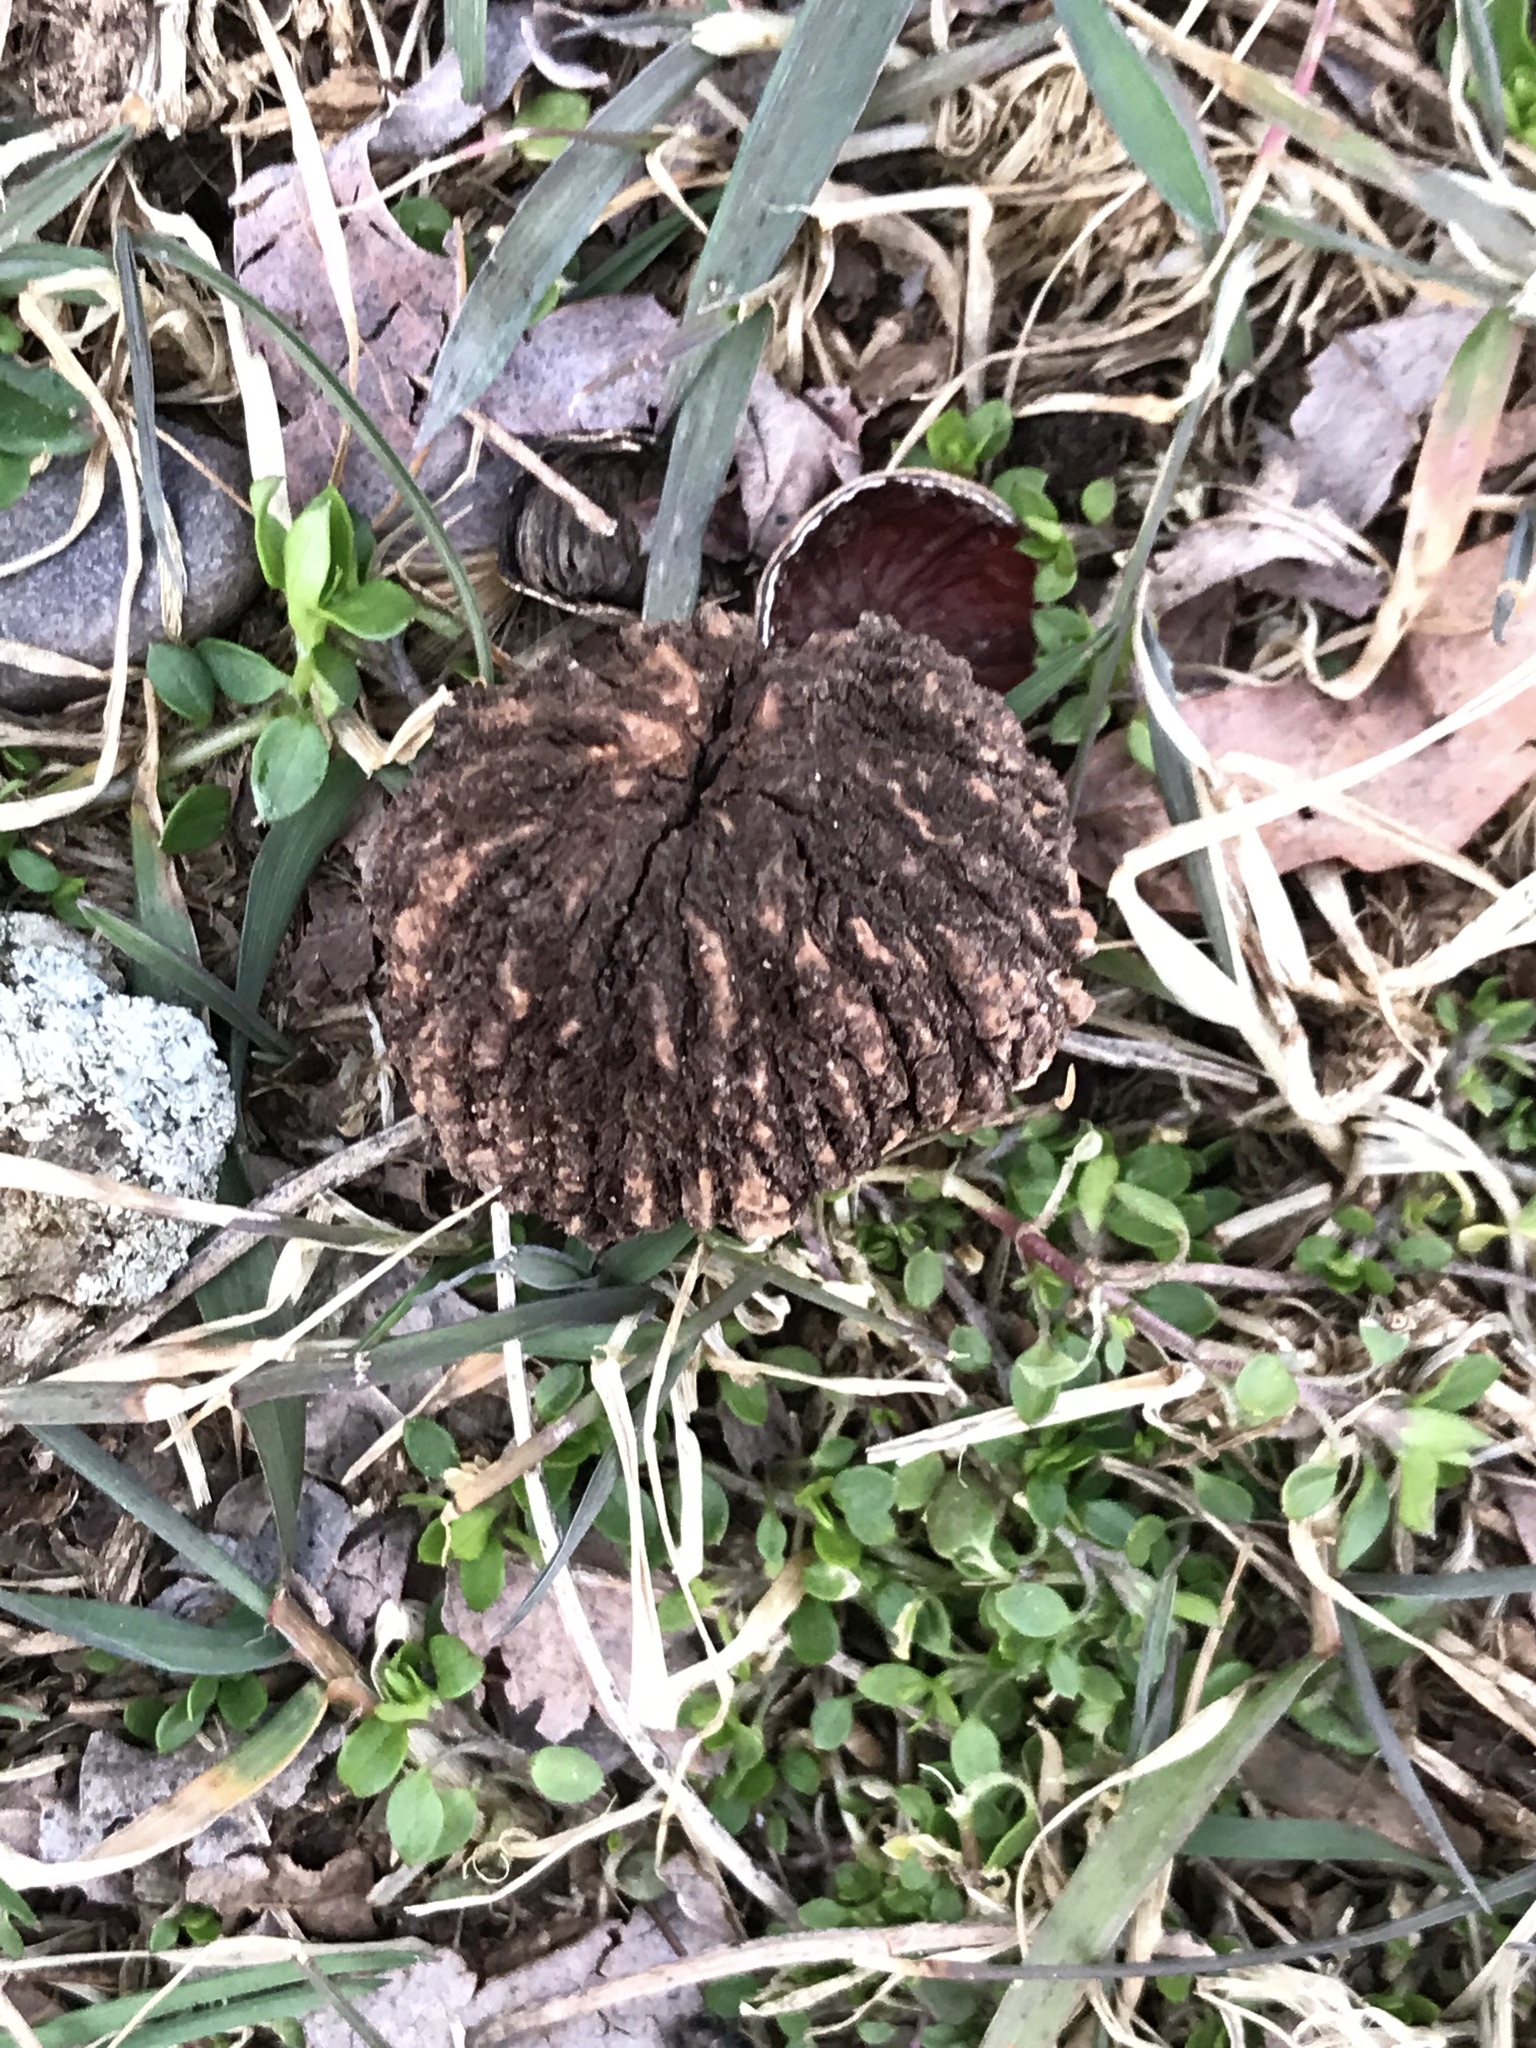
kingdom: Plantae
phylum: Tracheophyta
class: Magnoliopsida
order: Fagales
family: Juglandaceae
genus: Juglans
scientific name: Juglans nigra
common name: Black walnut
